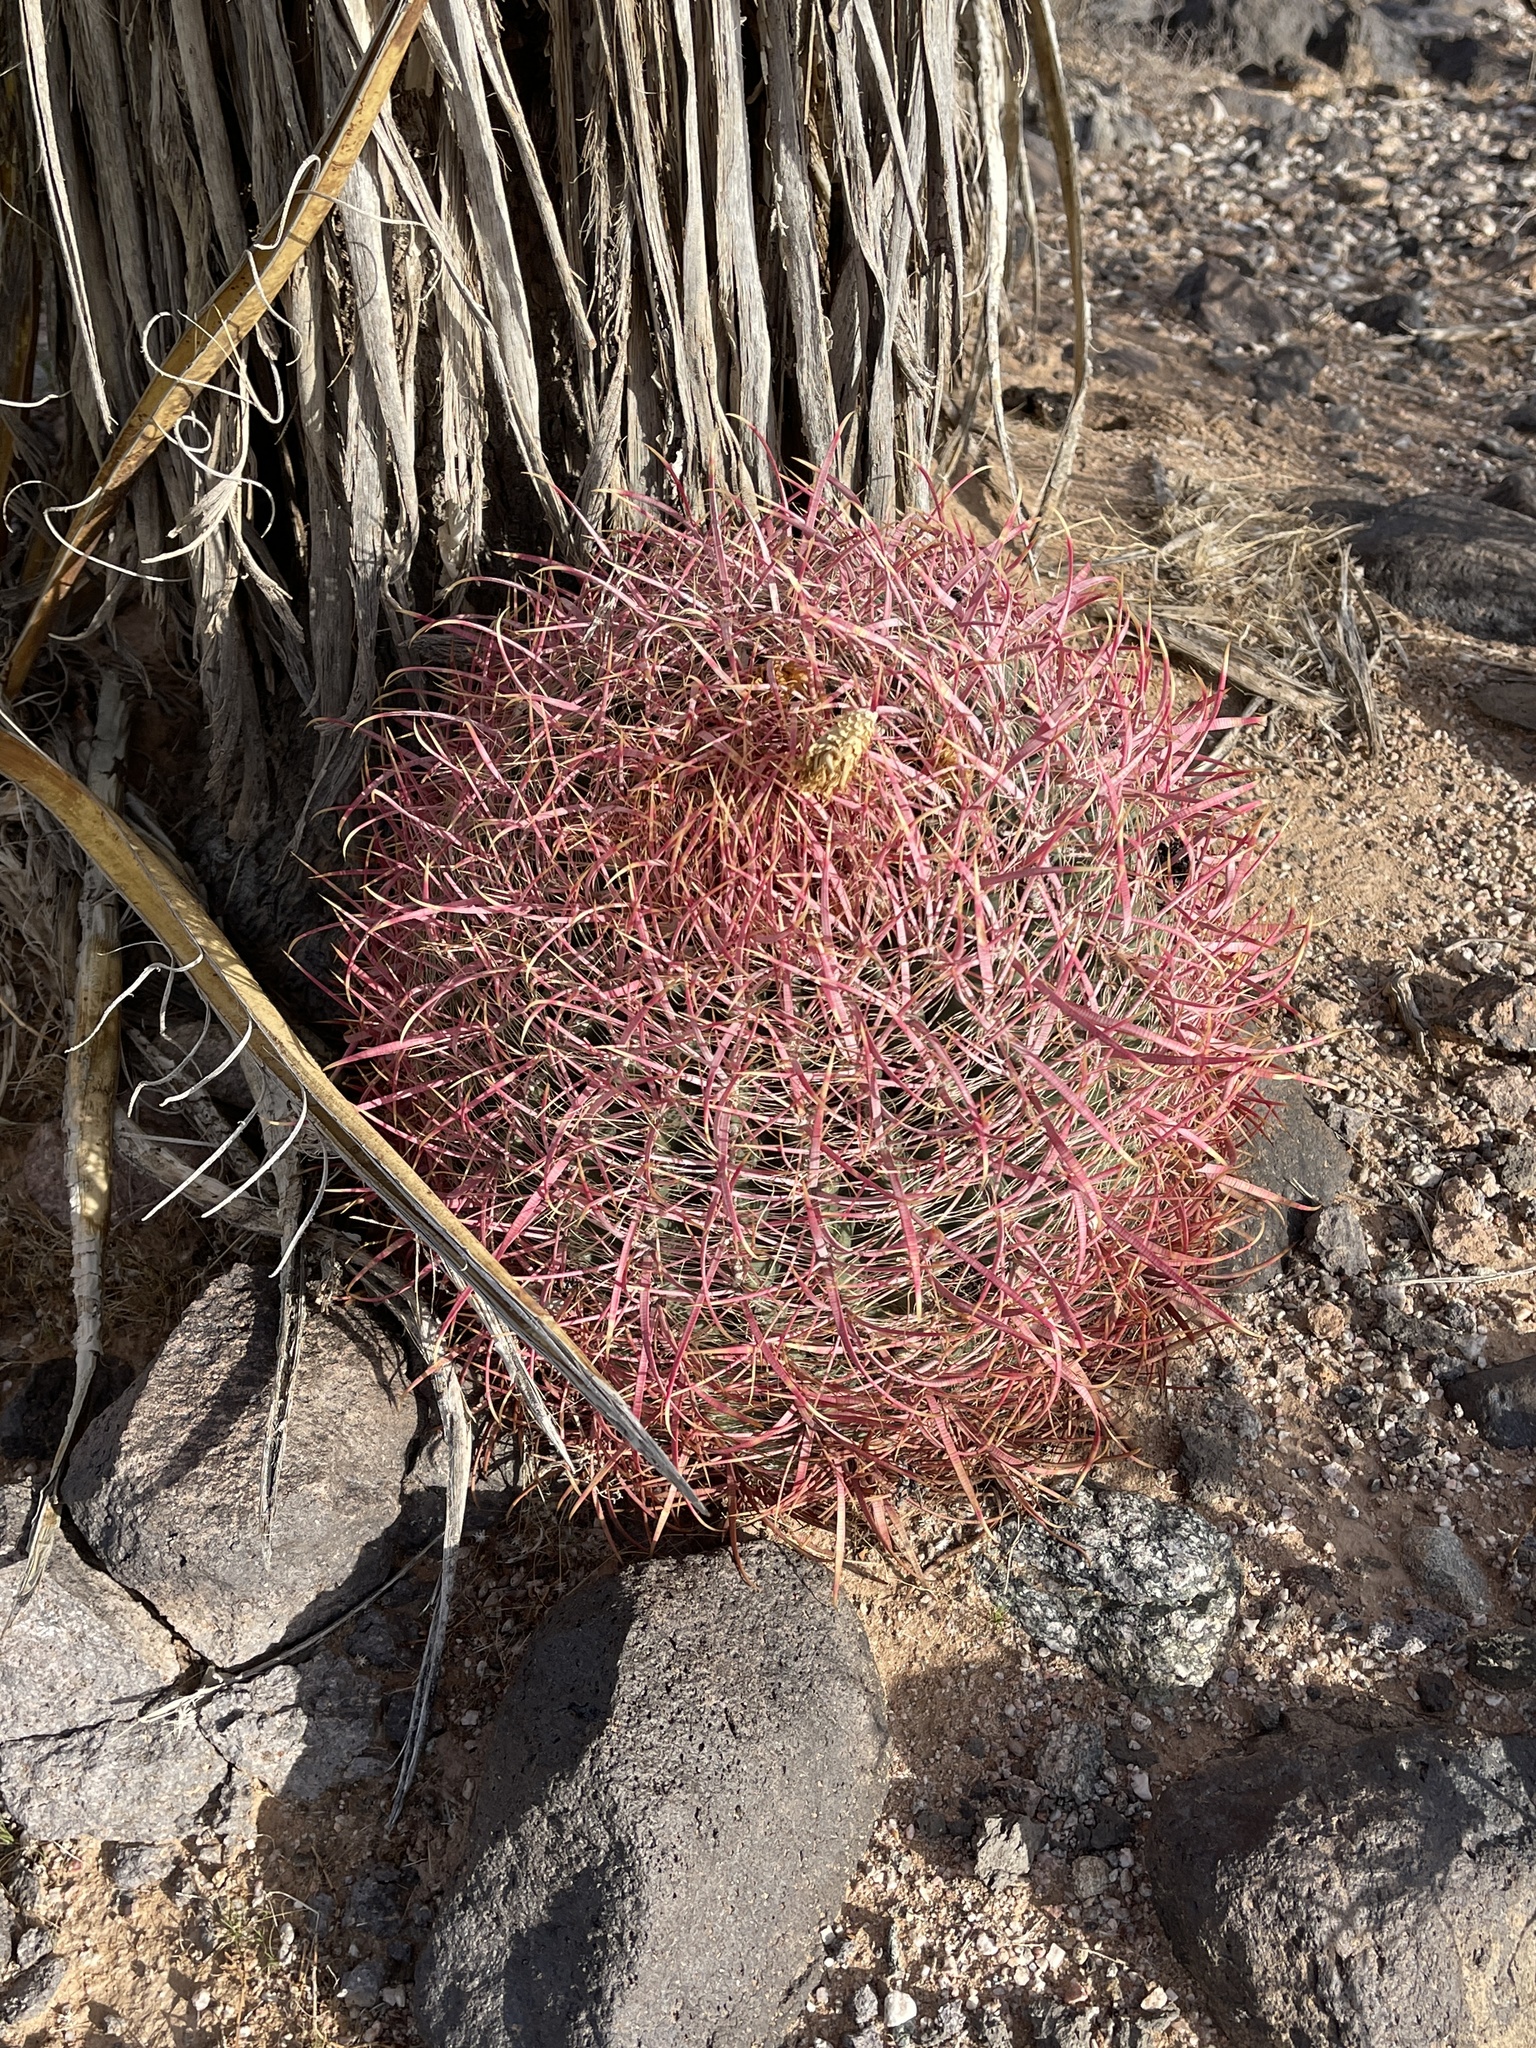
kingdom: Plantae
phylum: Tracheophyta
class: Magnoliopsida
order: Caryophyllales
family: Cactaceae
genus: Ferocactus
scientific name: Ferocactus cylindraceus
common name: California barrel cactus
